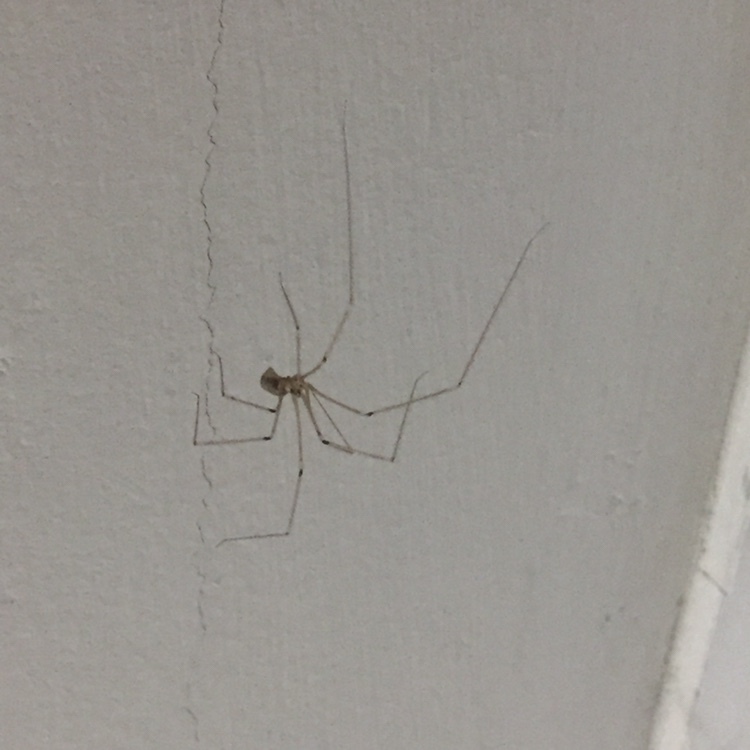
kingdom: Animalia
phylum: Arthropoda
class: Arachnida
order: Araneae
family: Pholcidae
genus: Pholcus
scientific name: Pholcus phalangioides
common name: Longbodied cellar spider
